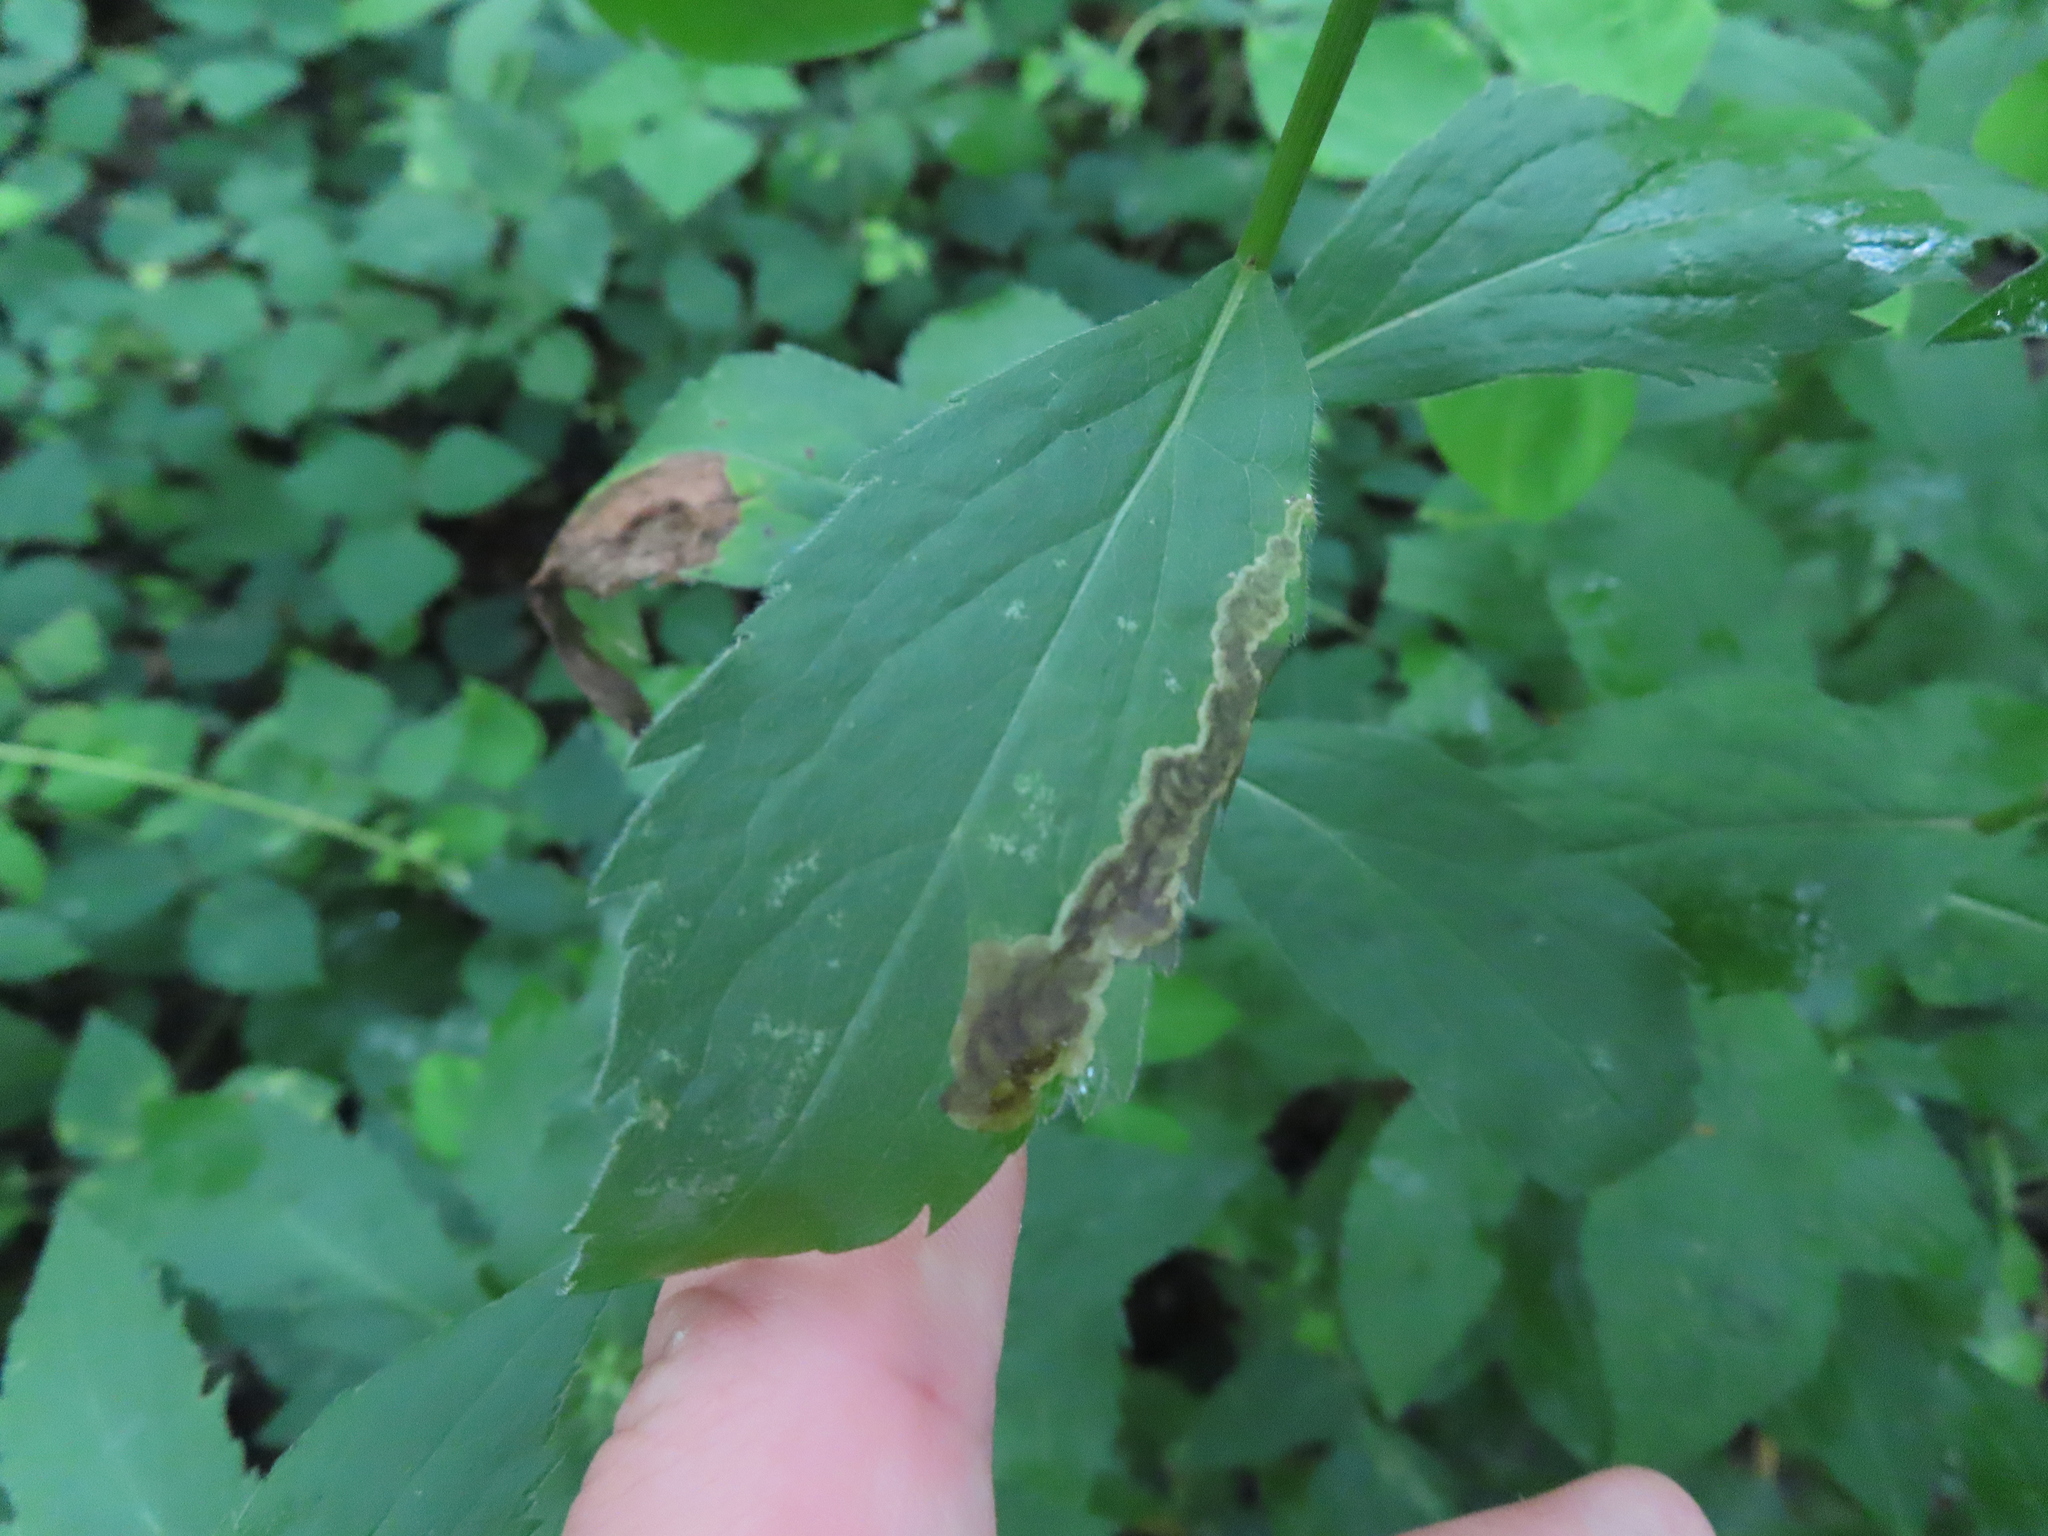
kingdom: Animalia
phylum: Arthropoda
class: Insecta
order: Diptera
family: Agromyzidae
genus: Nemorimyza
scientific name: Nemorimyza posticata
